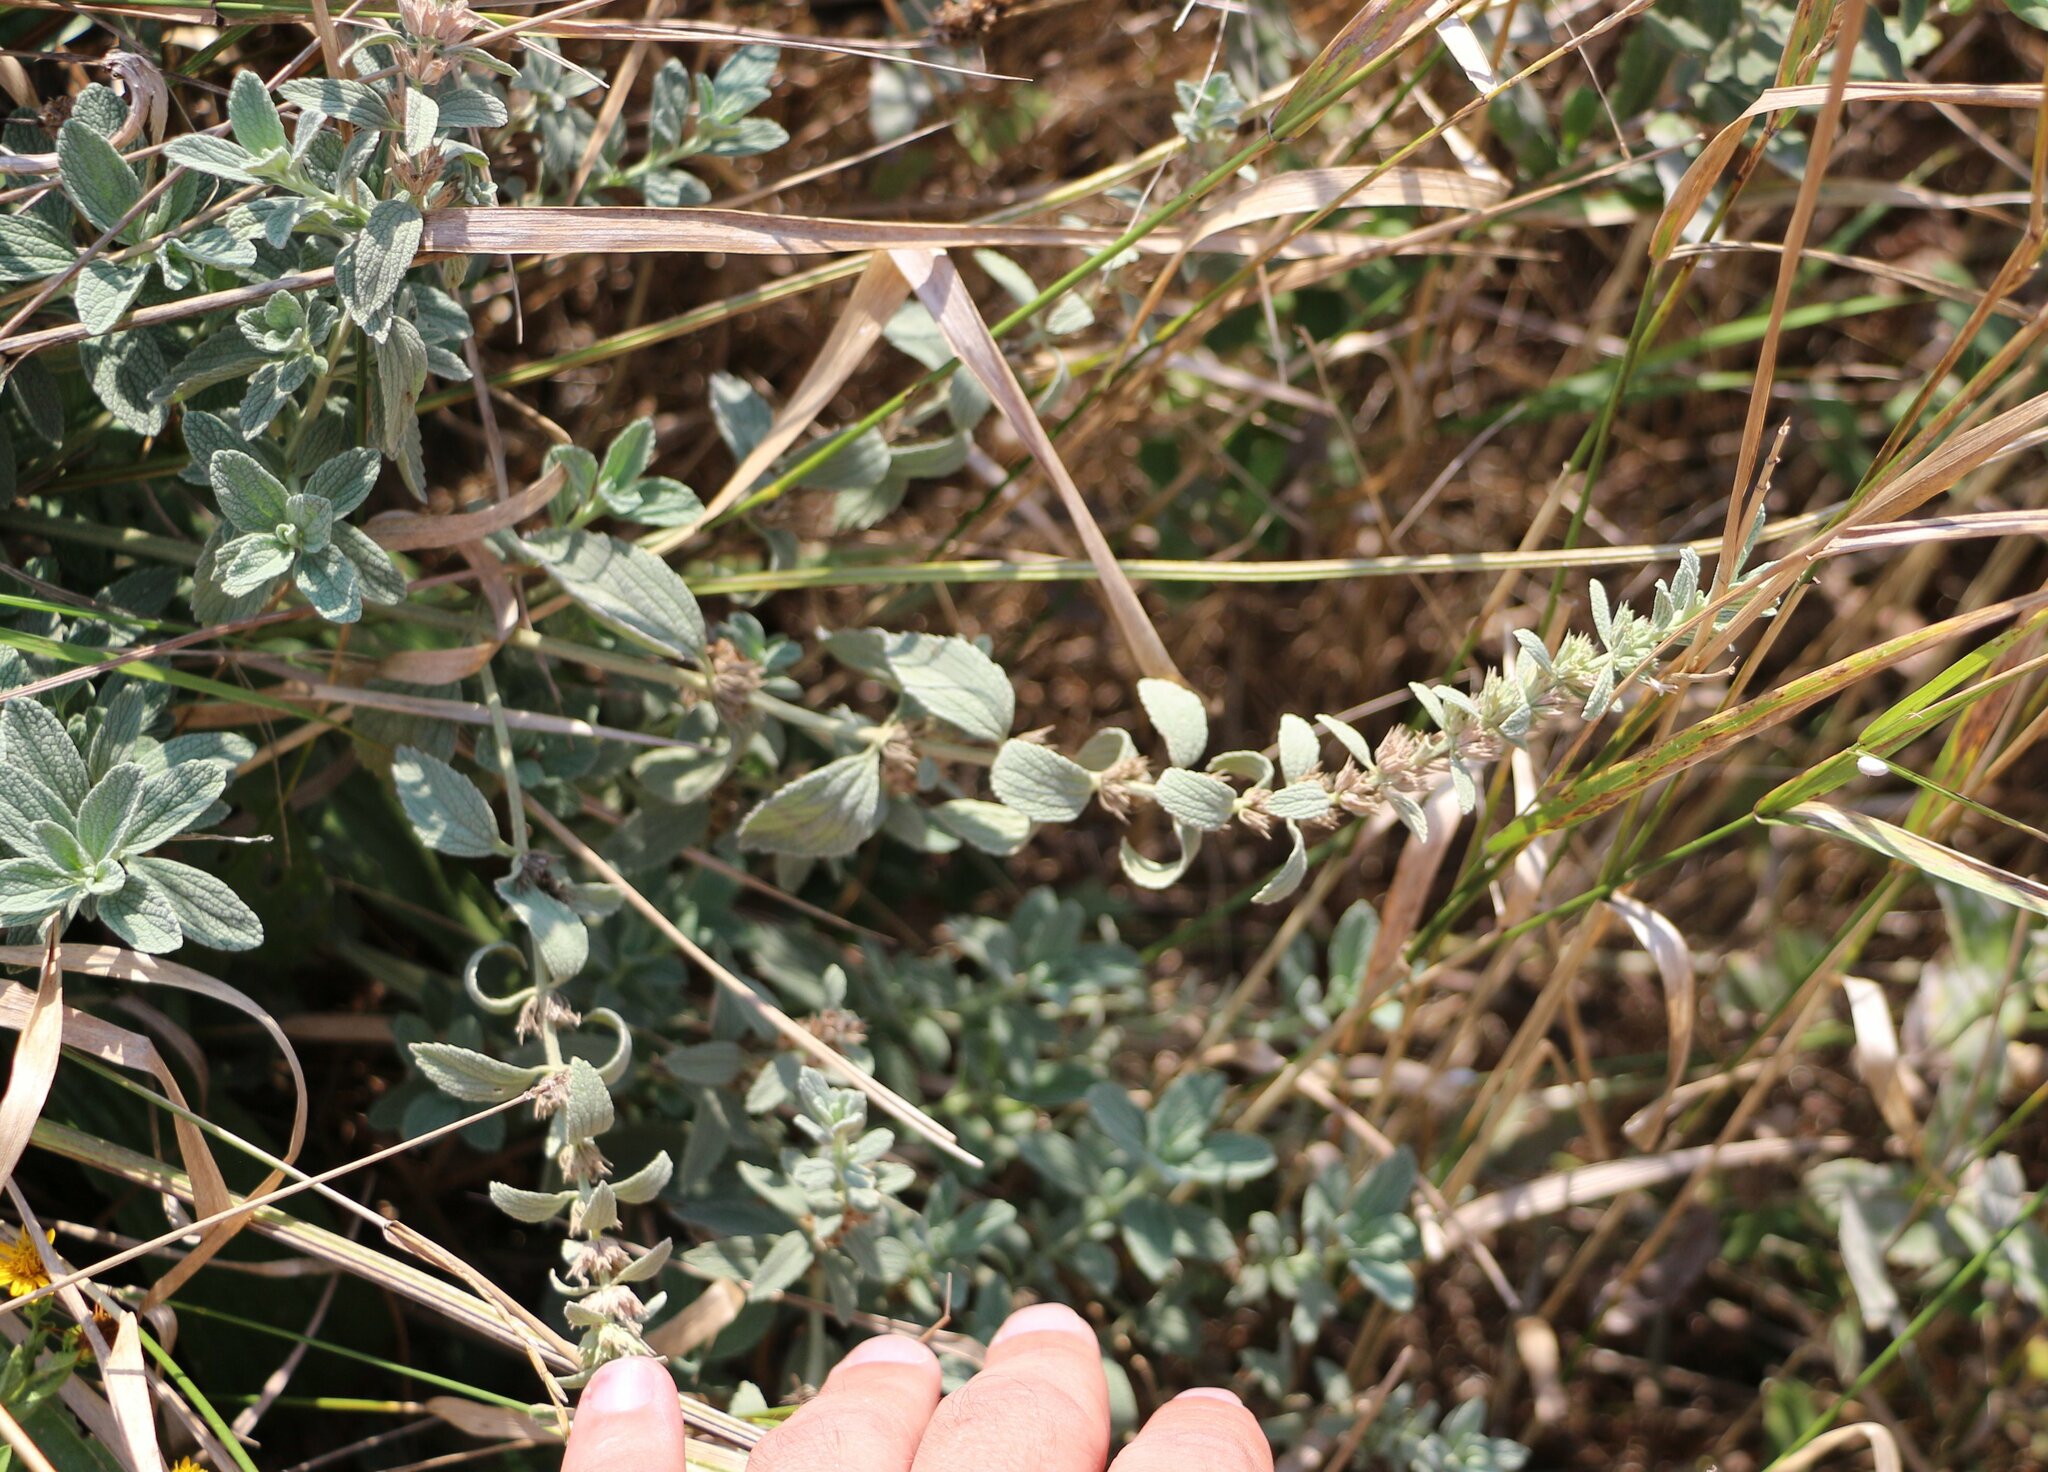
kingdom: Plantae
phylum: Tracheophyta
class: Magnoliopsida
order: Lamiales
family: Lamiaceae
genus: Marrubium
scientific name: Marrubium peregrinum
